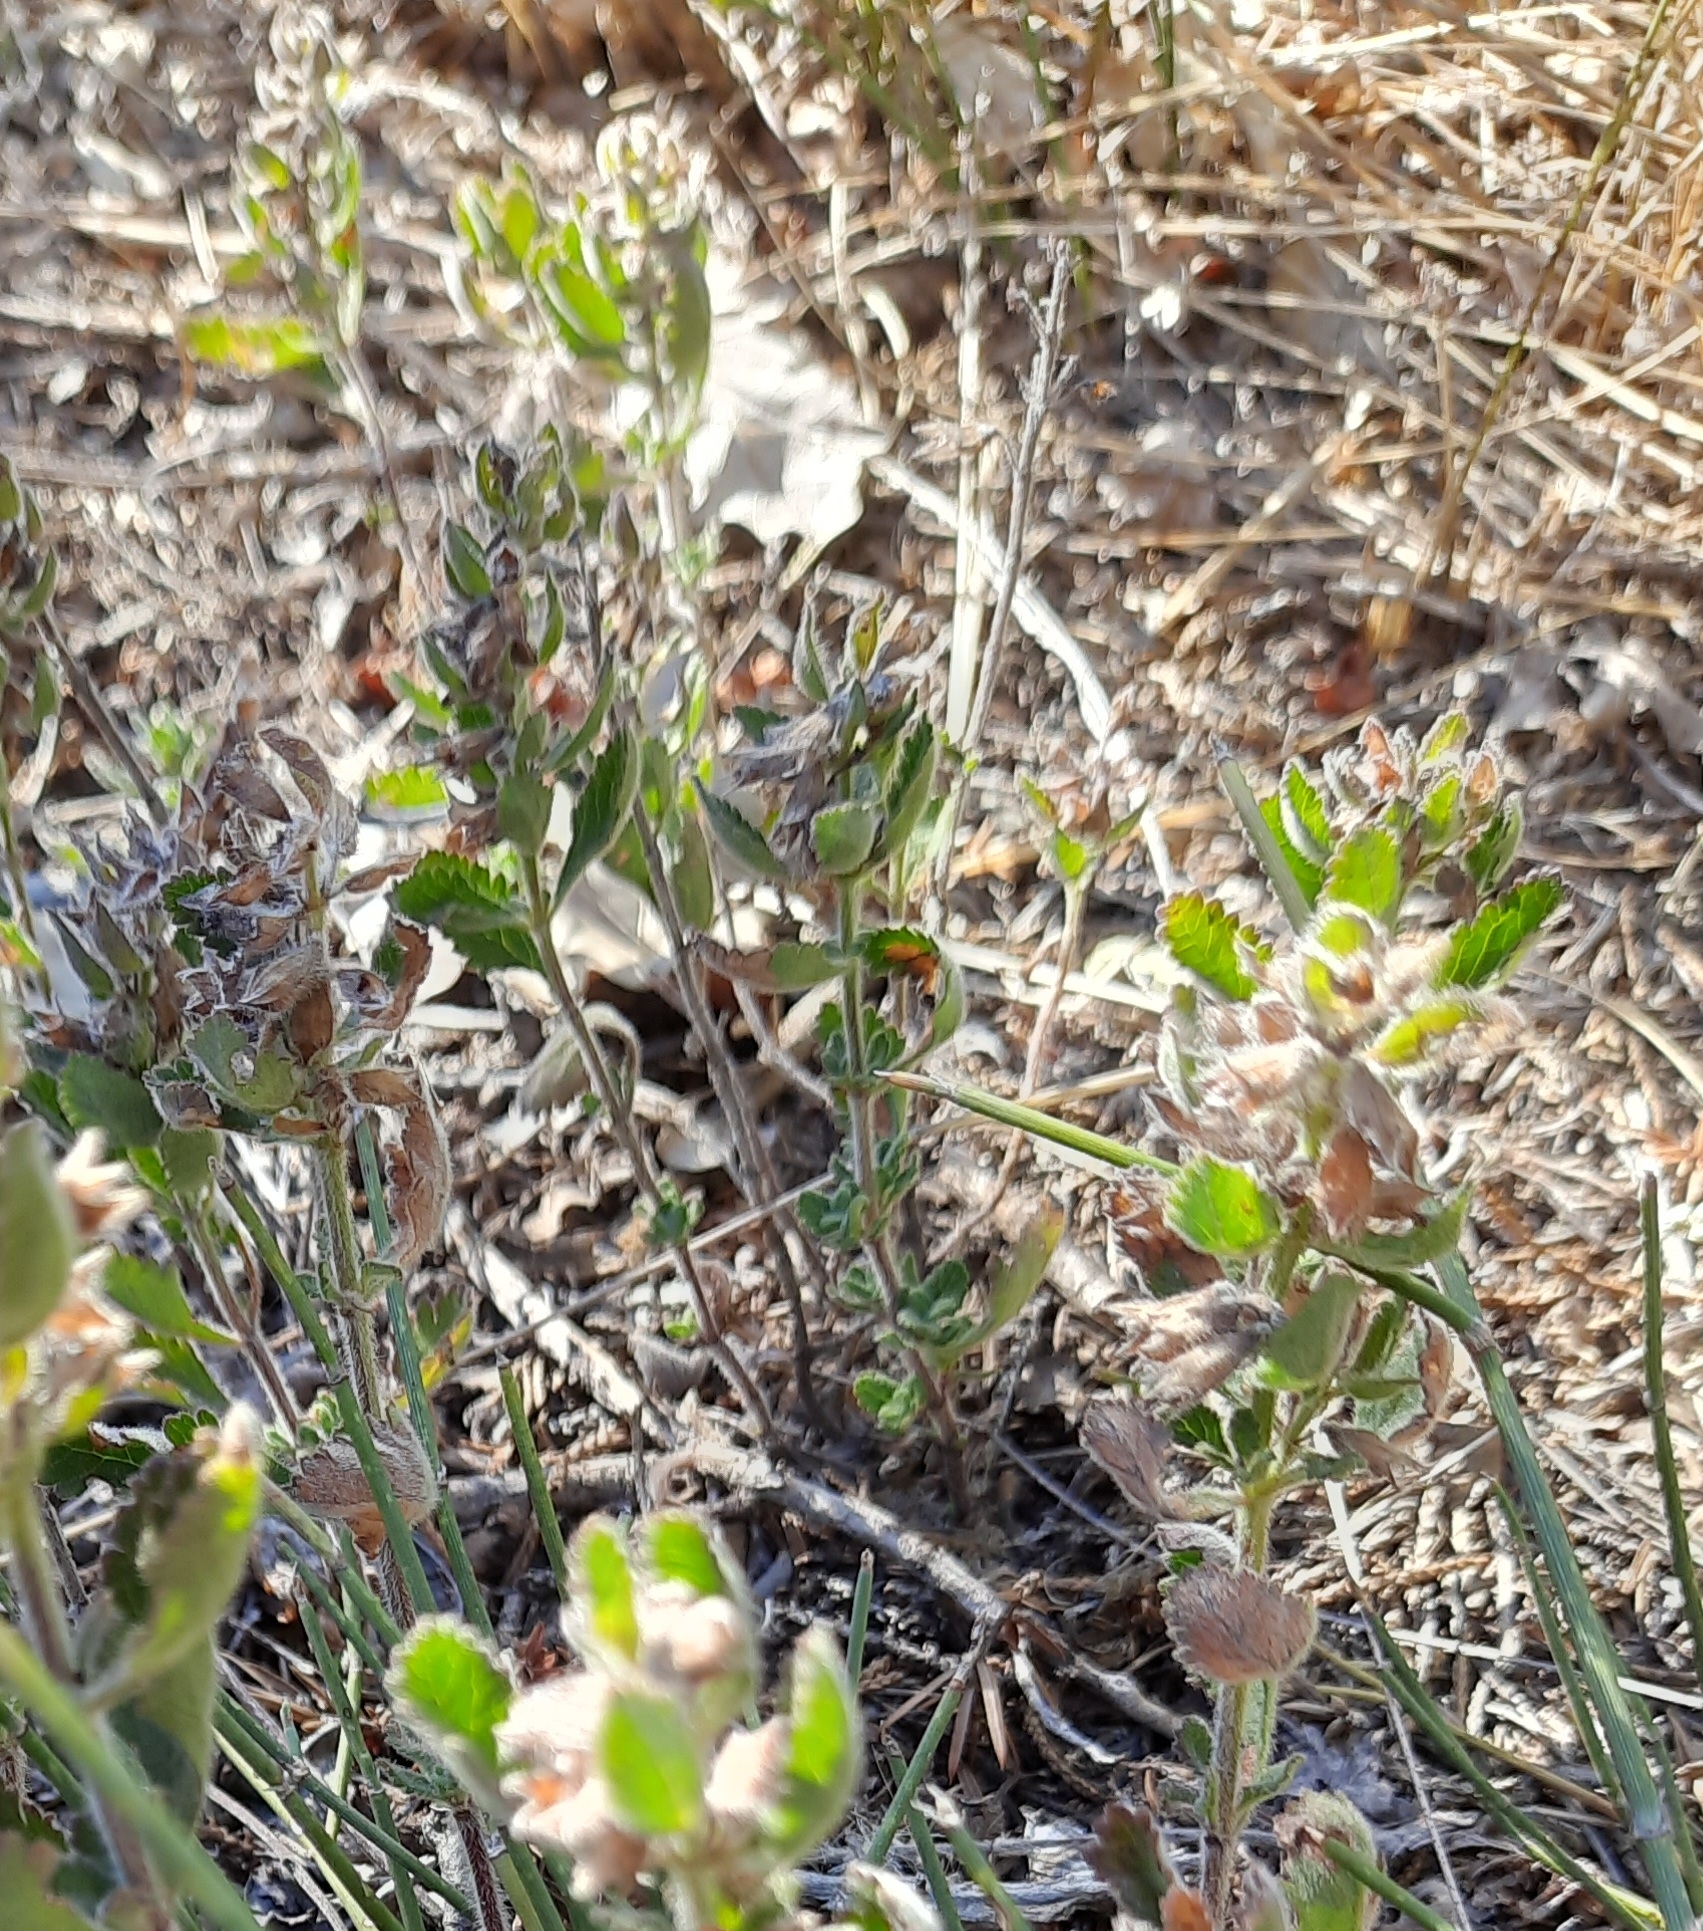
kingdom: Plantae
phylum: Tracheophyta
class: Magnoliopsida
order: Lamiales
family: Lamiaceae
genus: Teucrium
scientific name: Teucrium chamaedrys
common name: Wall germander
